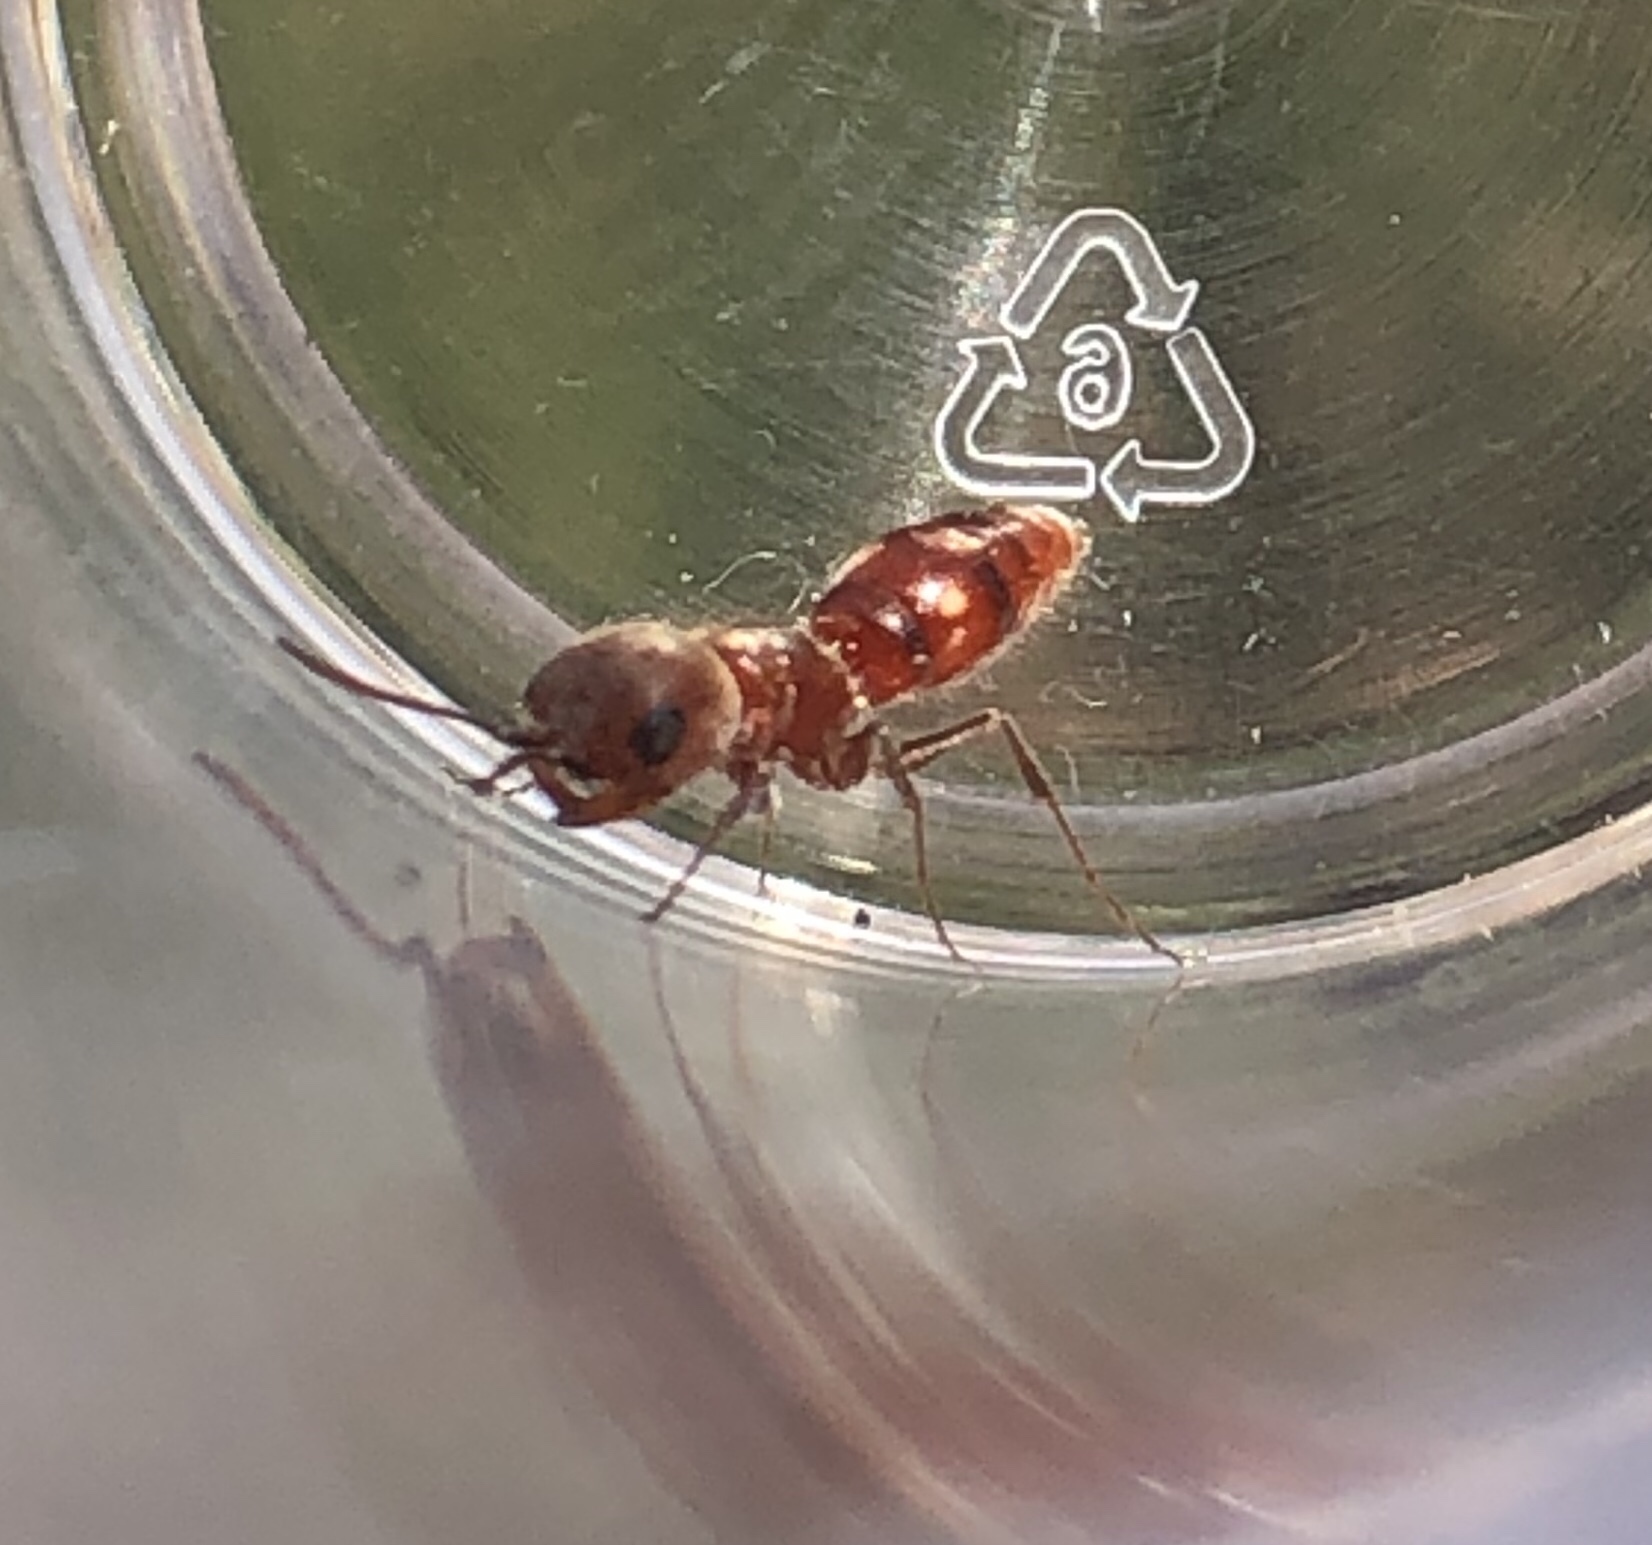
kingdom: Animalia
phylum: Arthropoda
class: Insecta
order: Hymenoptera
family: Myrmosidae
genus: Myrmosula
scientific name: Myrmosula
